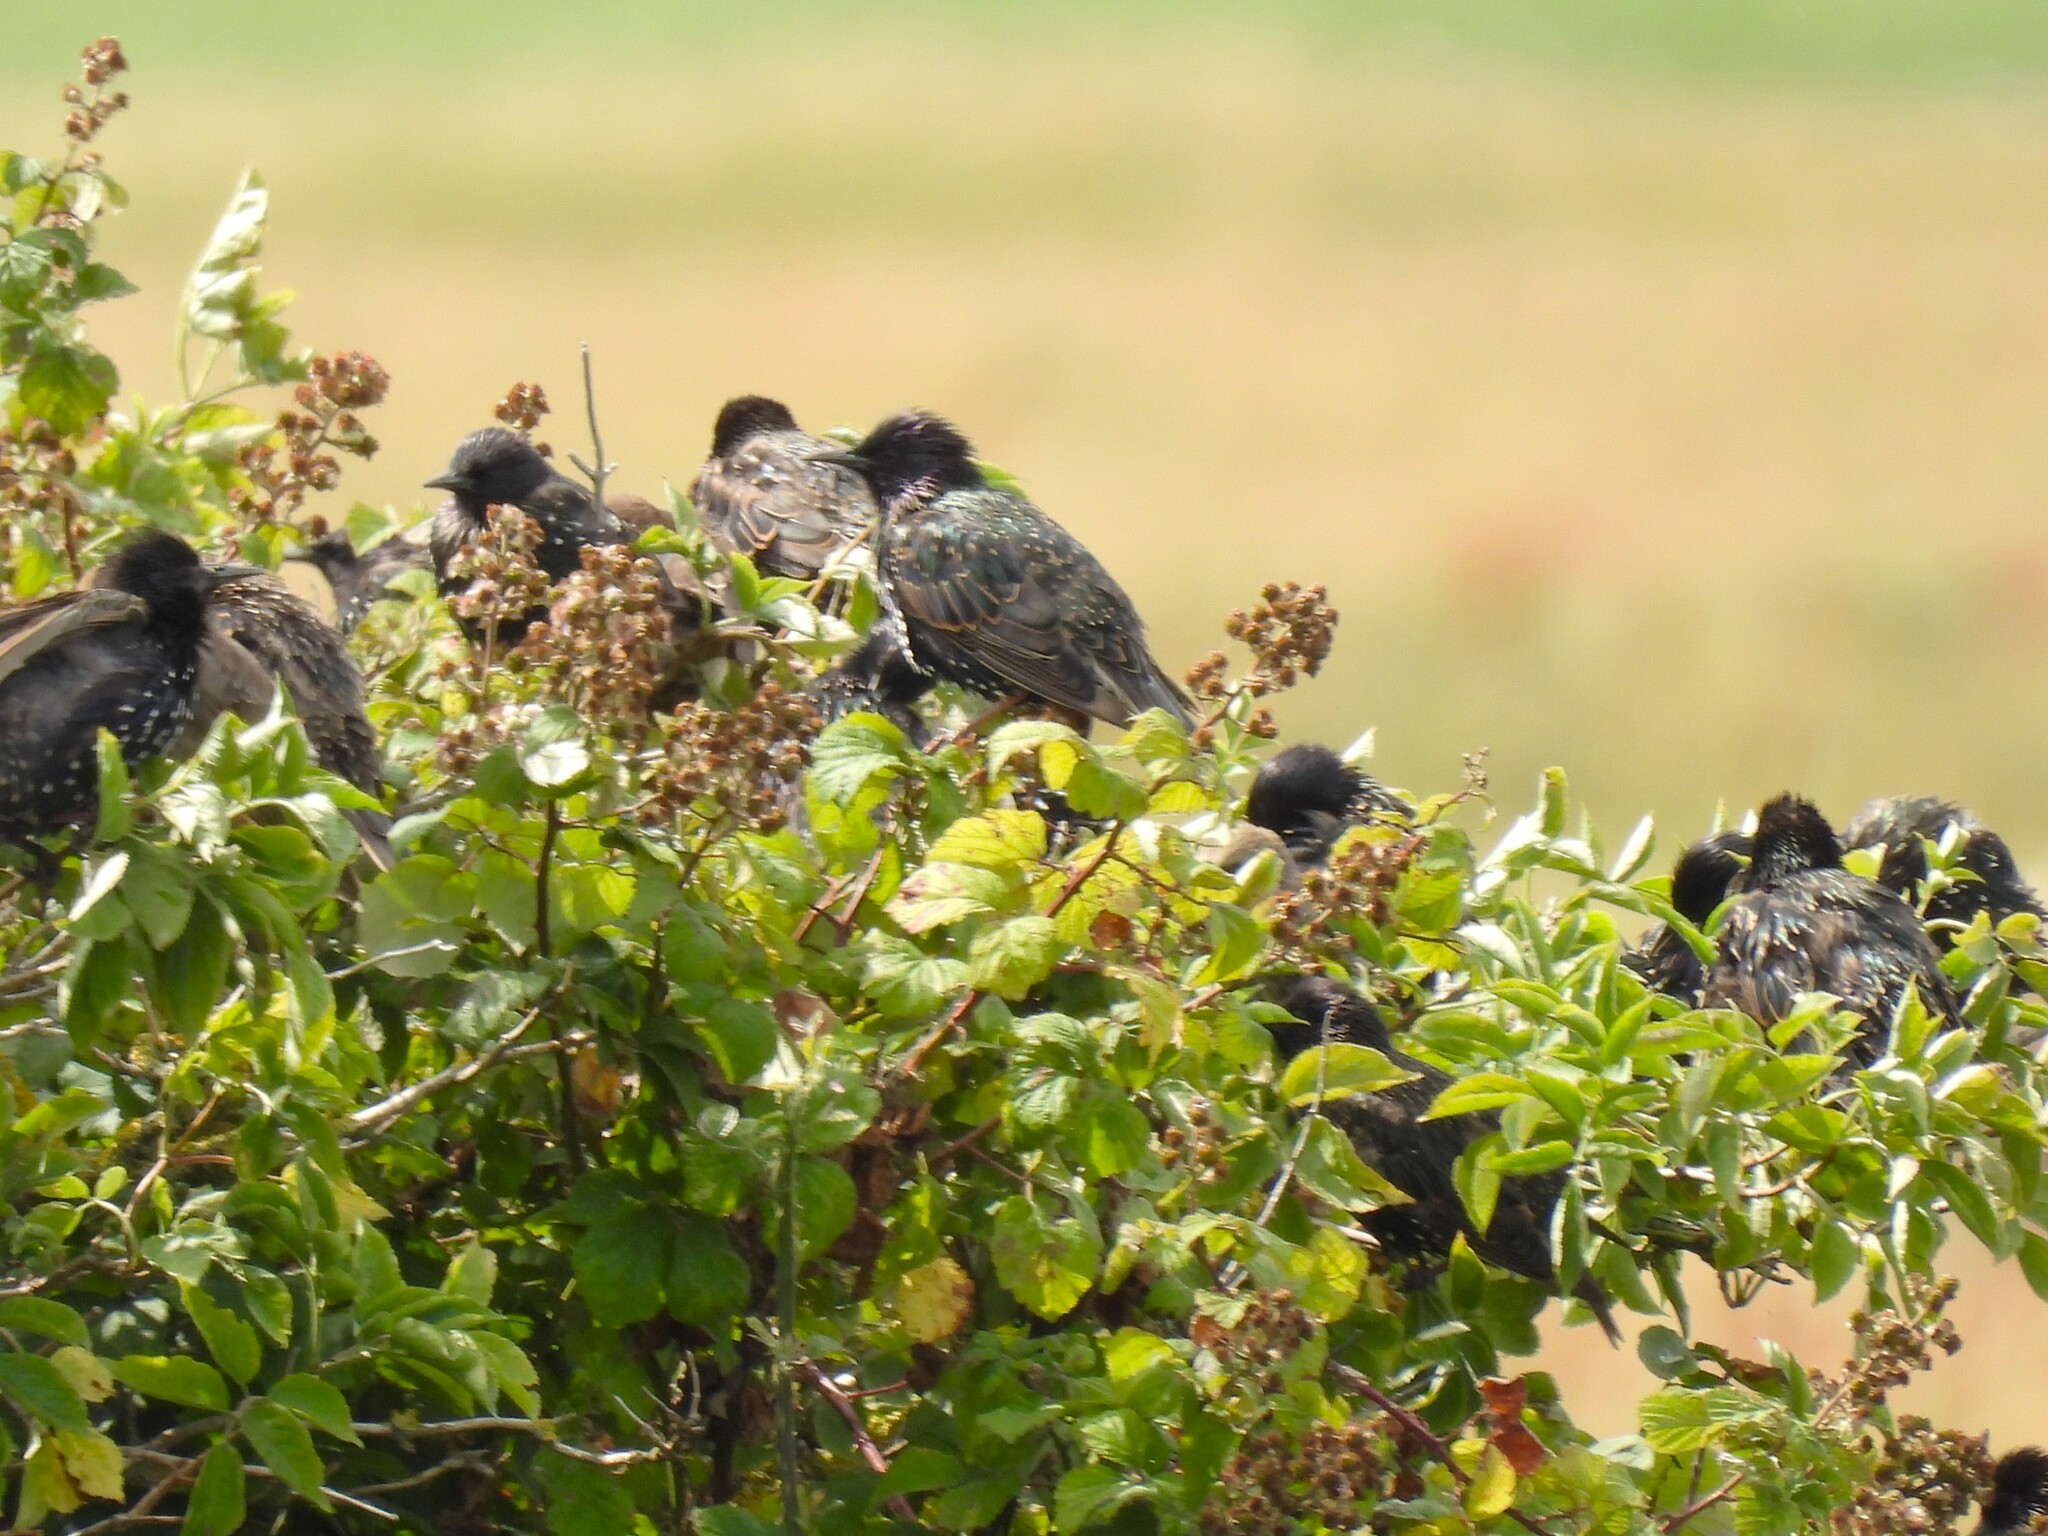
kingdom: Animalia
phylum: Chordata
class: Aves
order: Passeriformes
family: Sturnidae
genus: Sturnus
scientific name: Sturnus vulgaris
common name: Common starling
